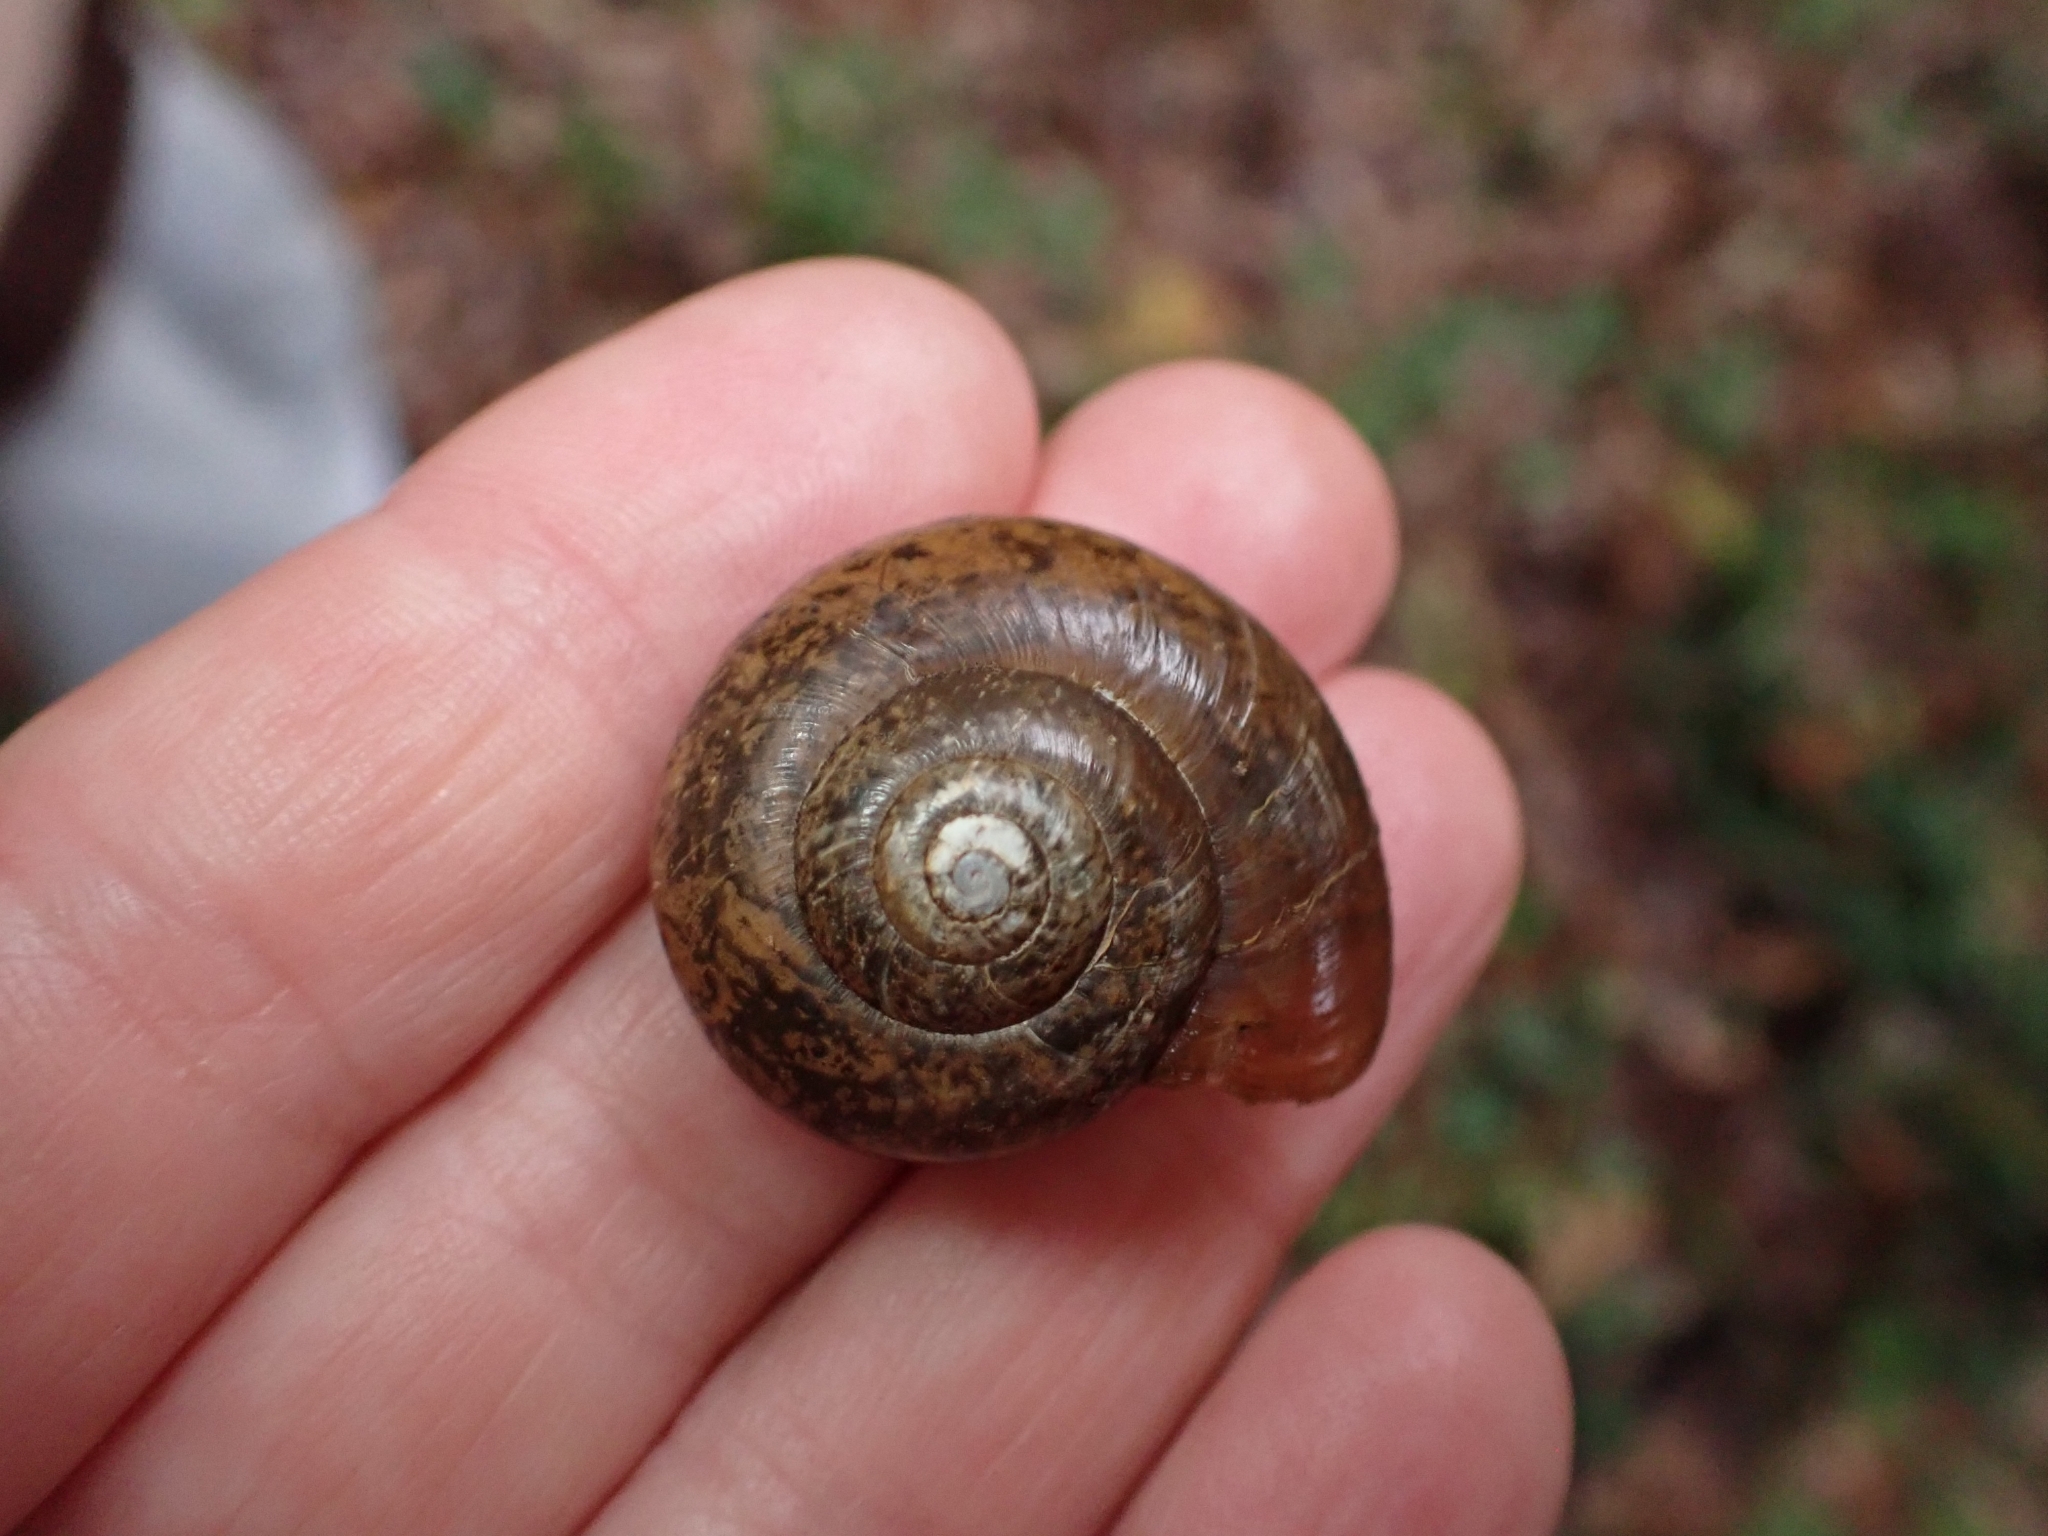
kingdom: Animalia
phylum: Mollusca
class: Gastropoda
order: Stylommatophora
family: Gastrodontidae
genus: Retinella
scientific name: Retinella olivetorum
